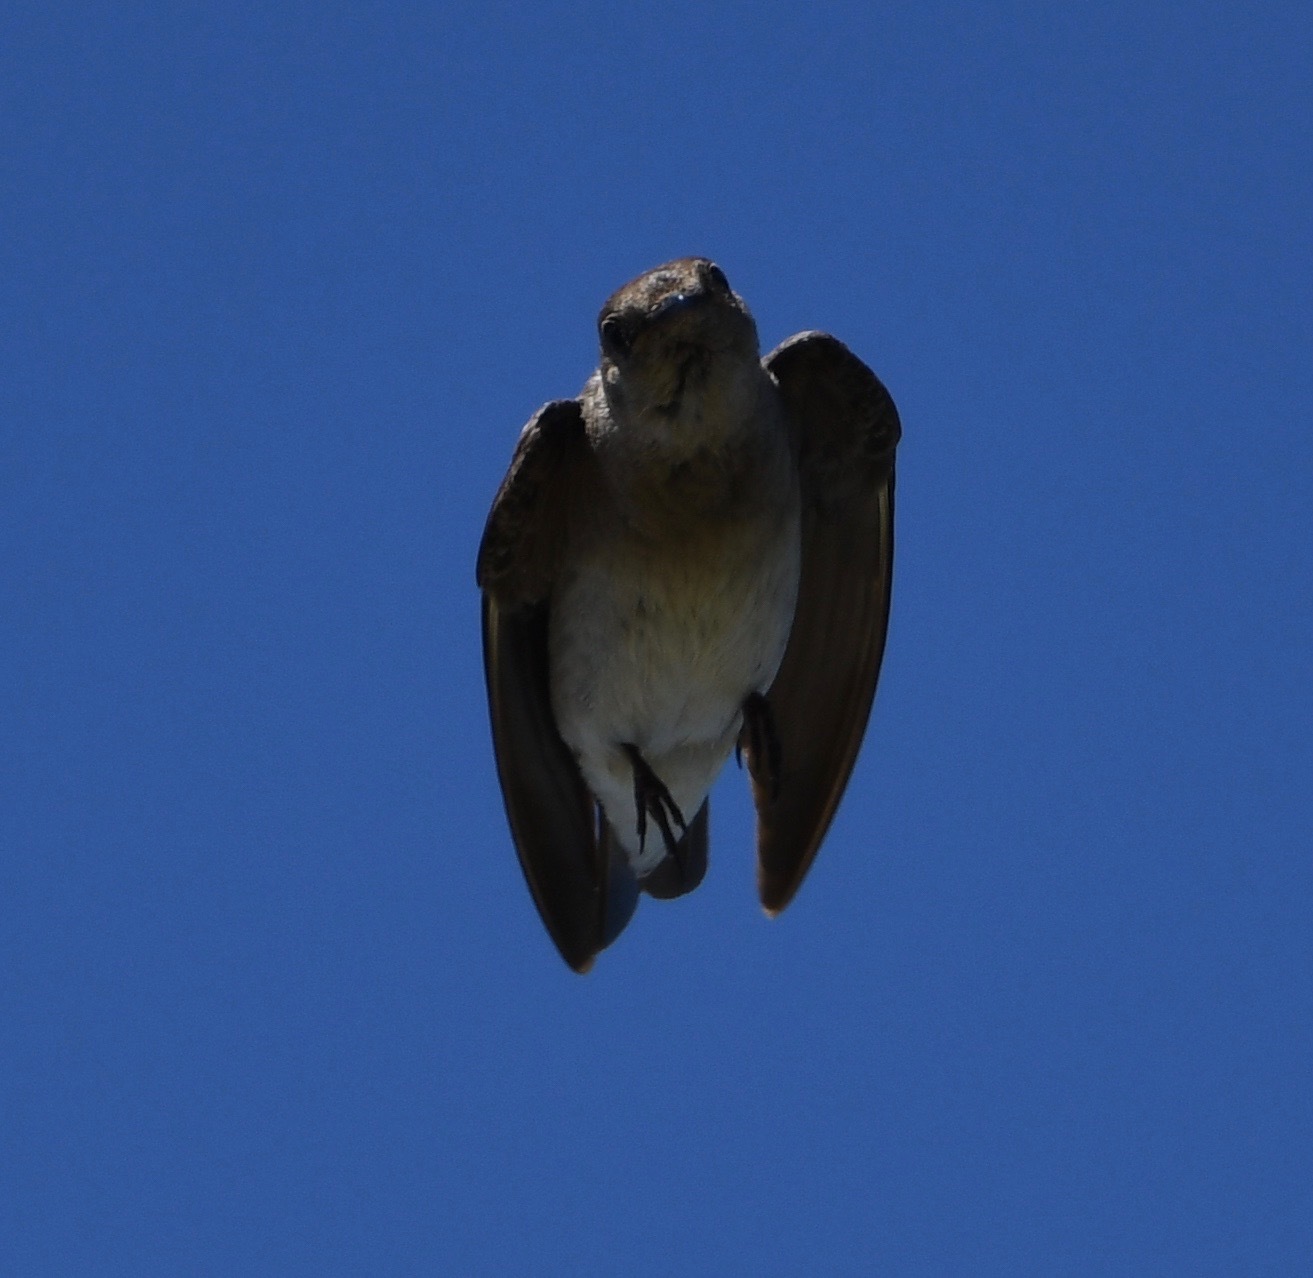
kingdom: Animalia
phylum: Chordata
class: Aves
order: Passeriformes
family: Hirundinidae
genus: Stelgidopteryx
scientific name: Stelgidopteryx serripennis
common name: Northern rough-winged swallow
